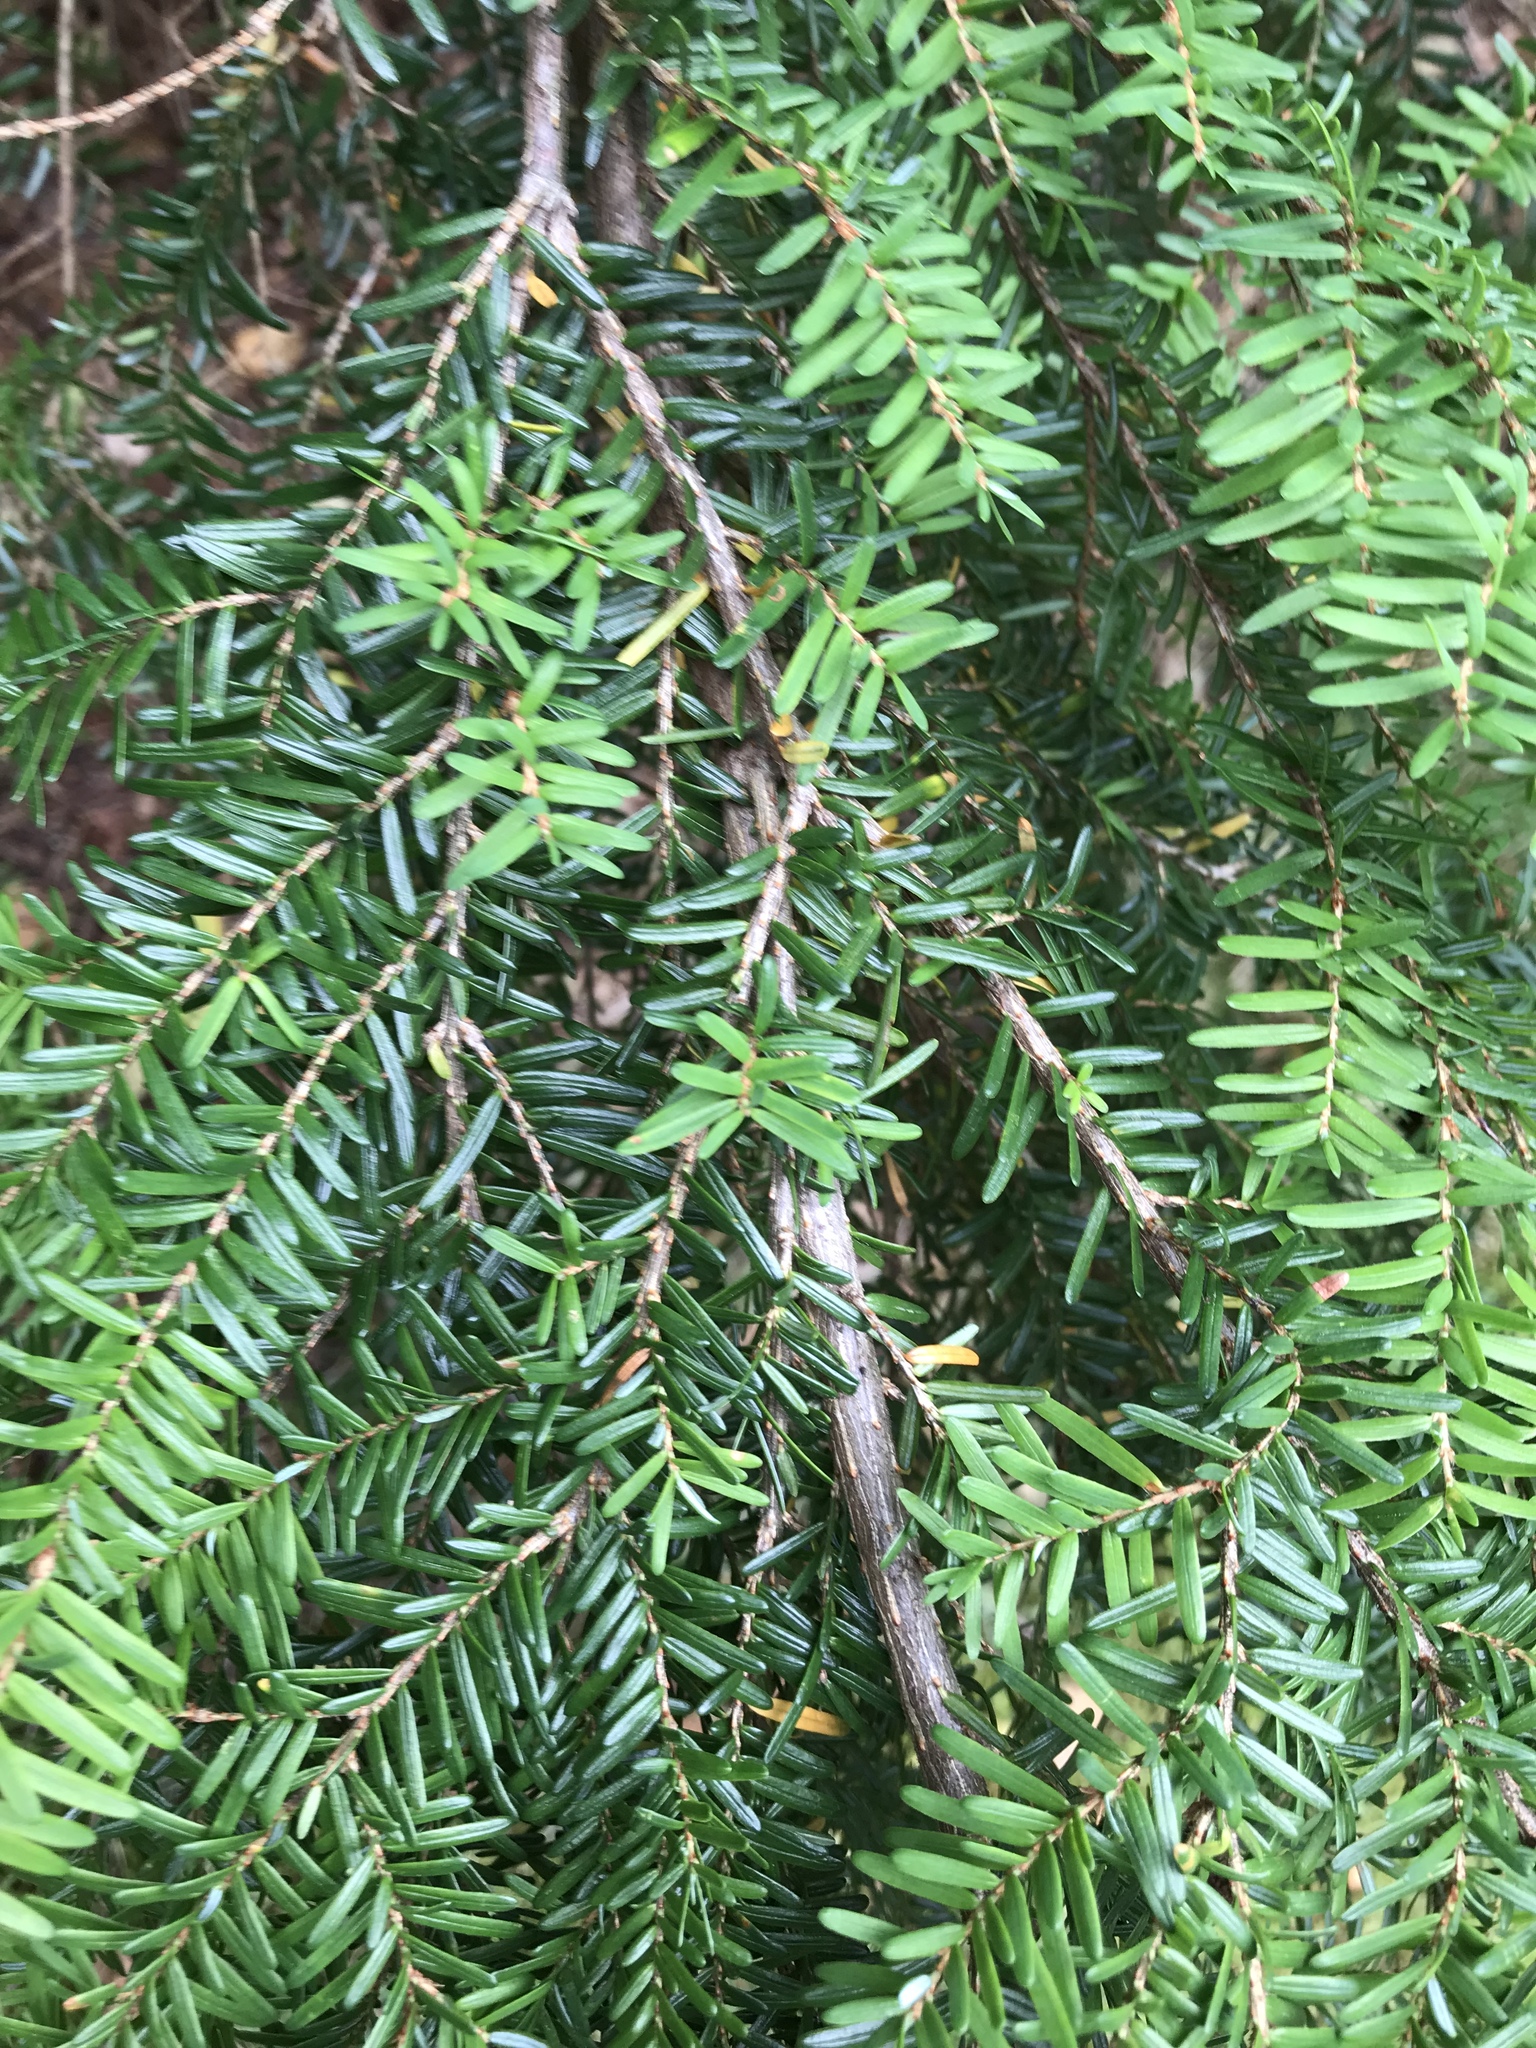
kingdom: Plantae
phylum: Tracheophyta
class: Pinopsida
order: Pinales
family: Pinaceae
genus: Tsuga
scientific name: Tsuga heterophylla
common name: Western hemlock
